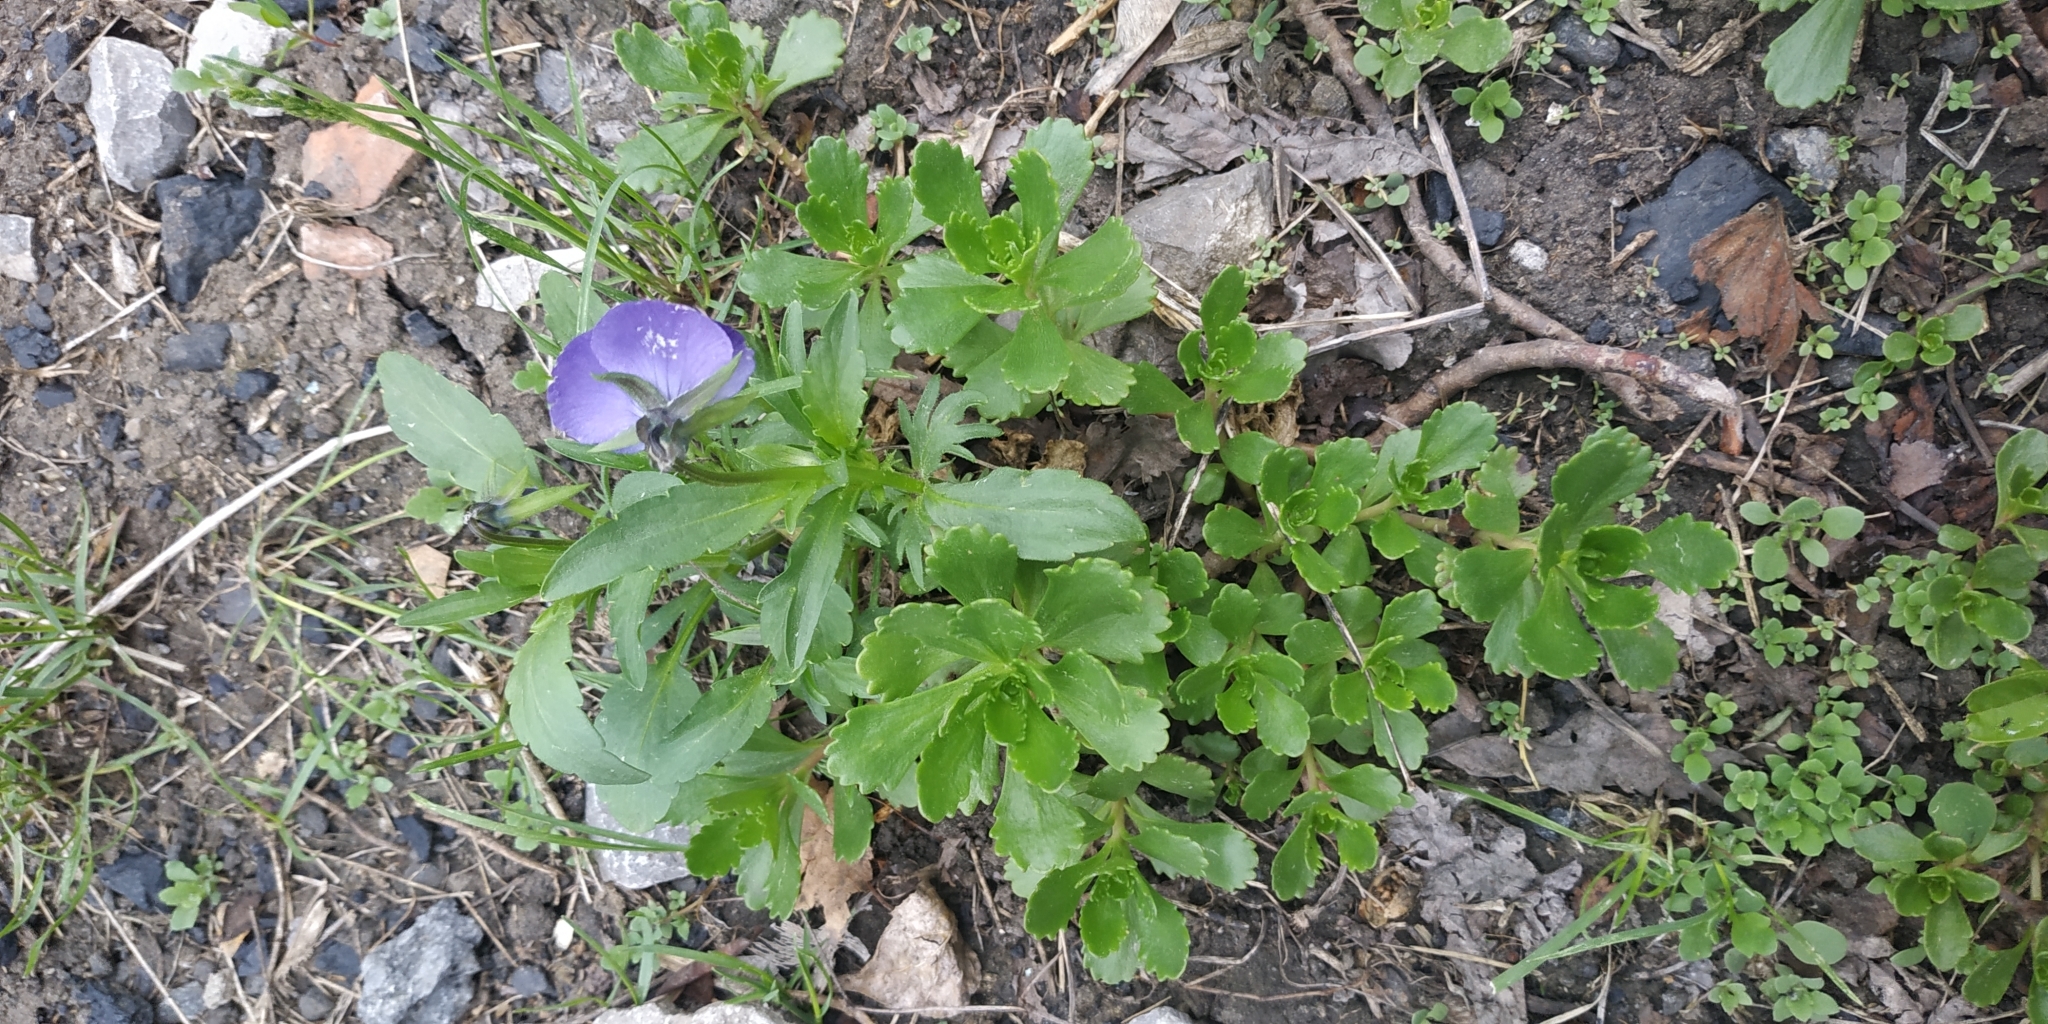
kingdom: Plantae
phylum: Tracheophyta
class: Magnoliopsida
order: Malpighiales
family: Violaceae
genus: Viola
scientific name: Viola wittrockiana
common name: Garden pansy
